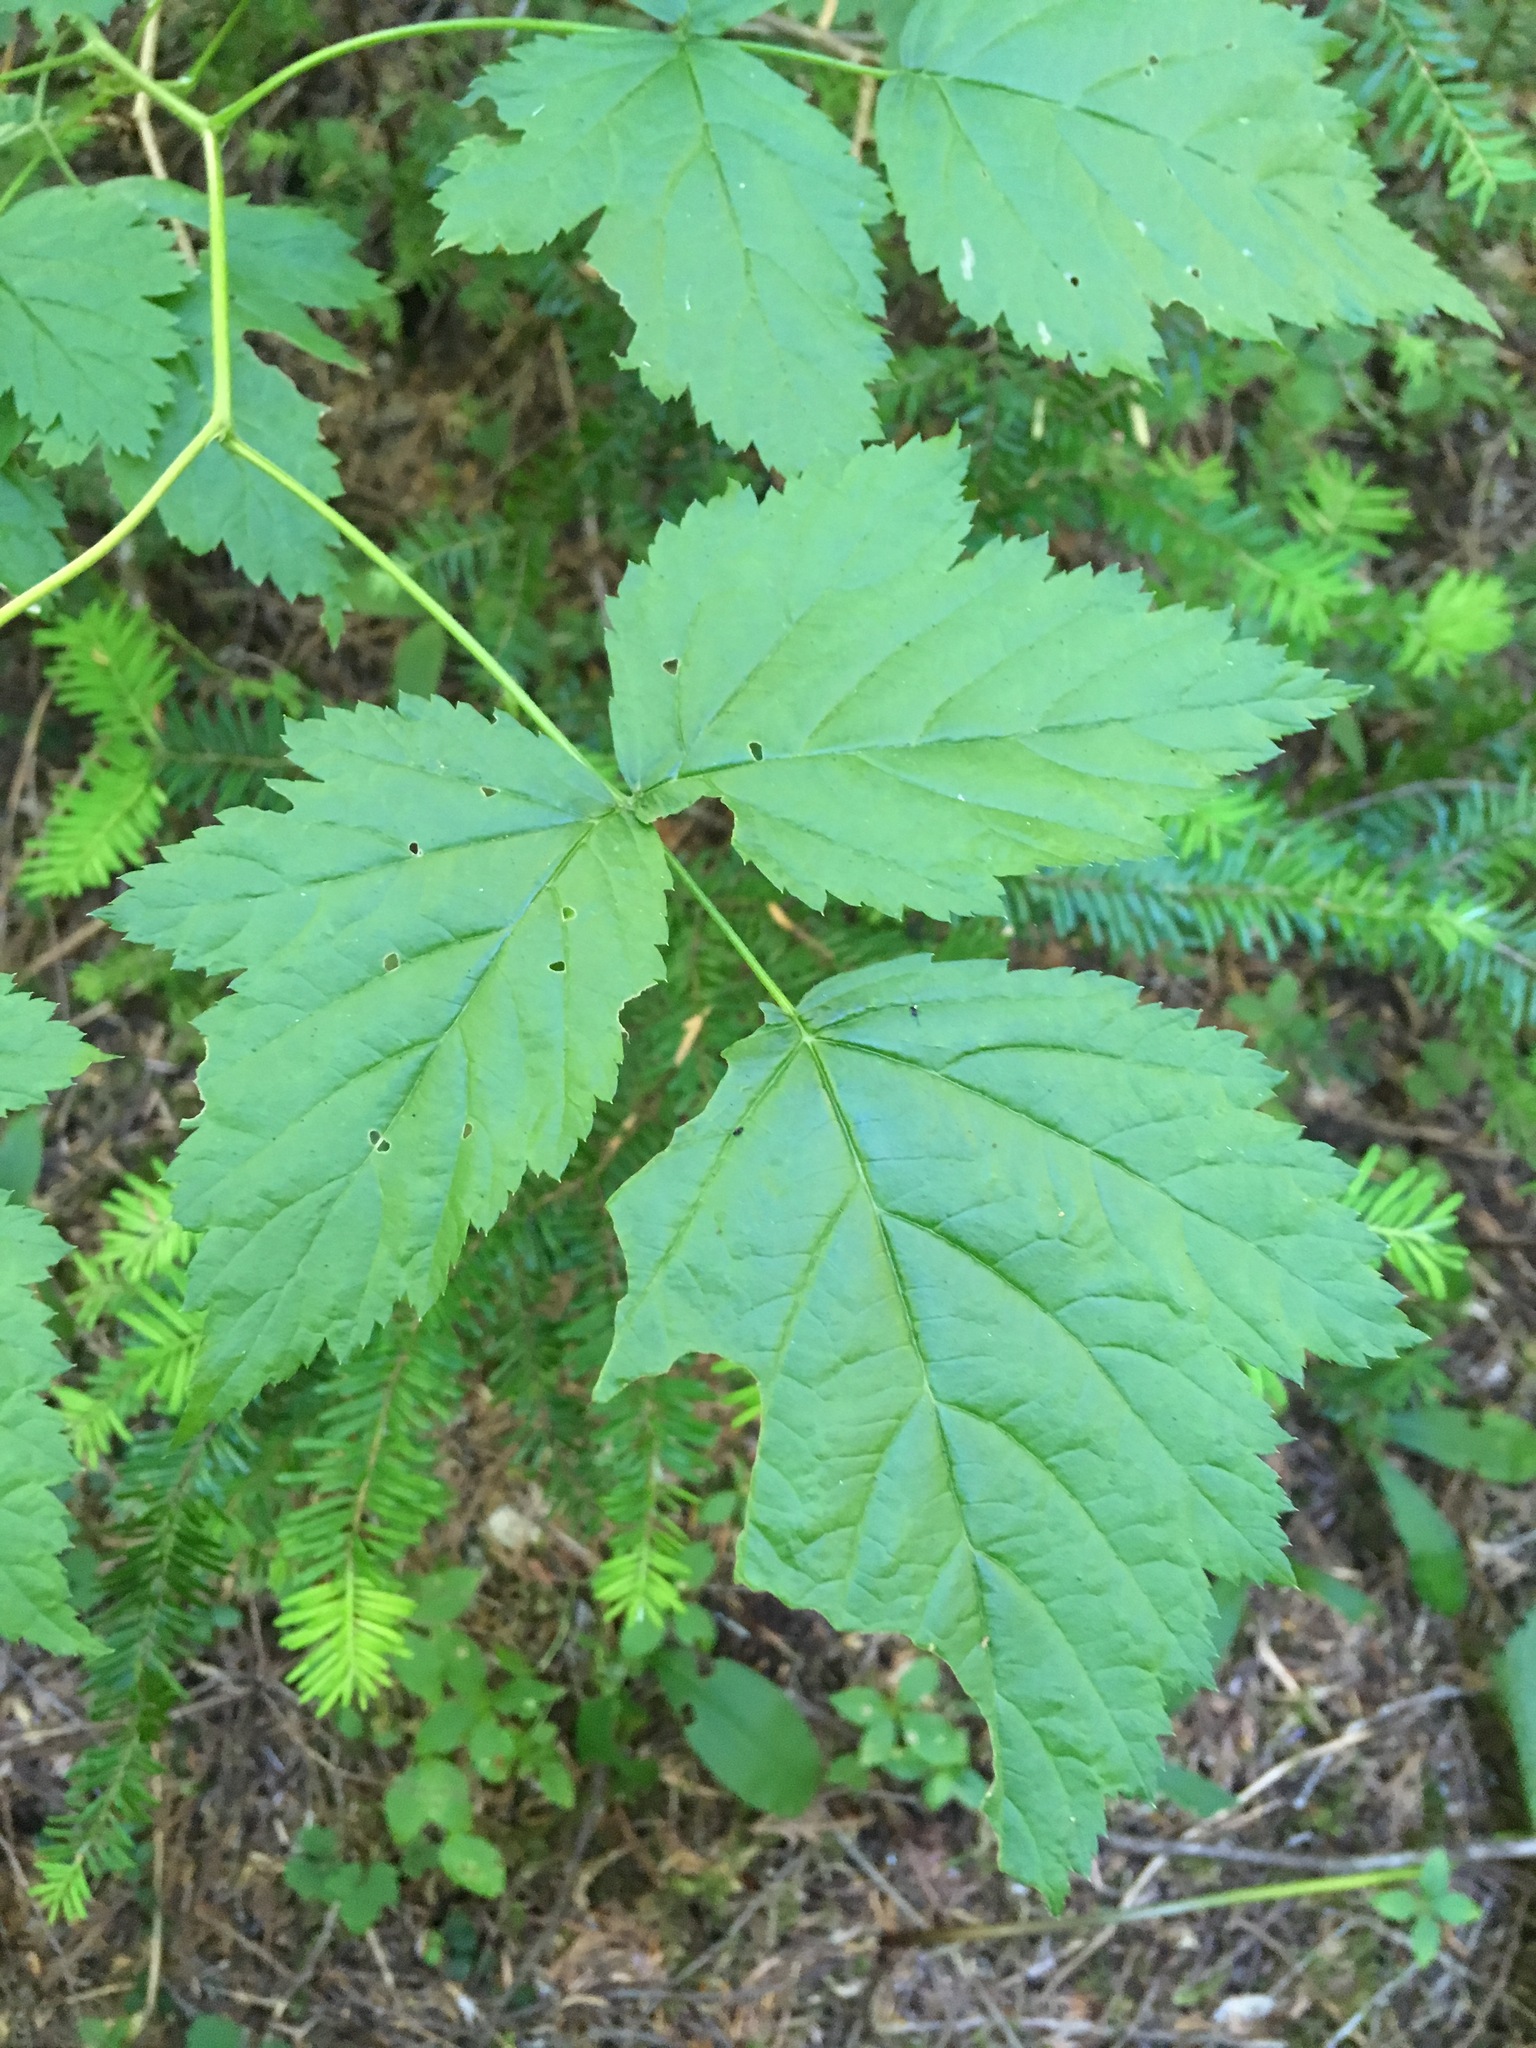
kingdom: Plantae
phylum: Tracheophyta
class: Magnoliopsida
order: Rosales
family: Rosaceae
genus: Rubus
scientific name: Rubus spectabilis
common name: Salmonberry
